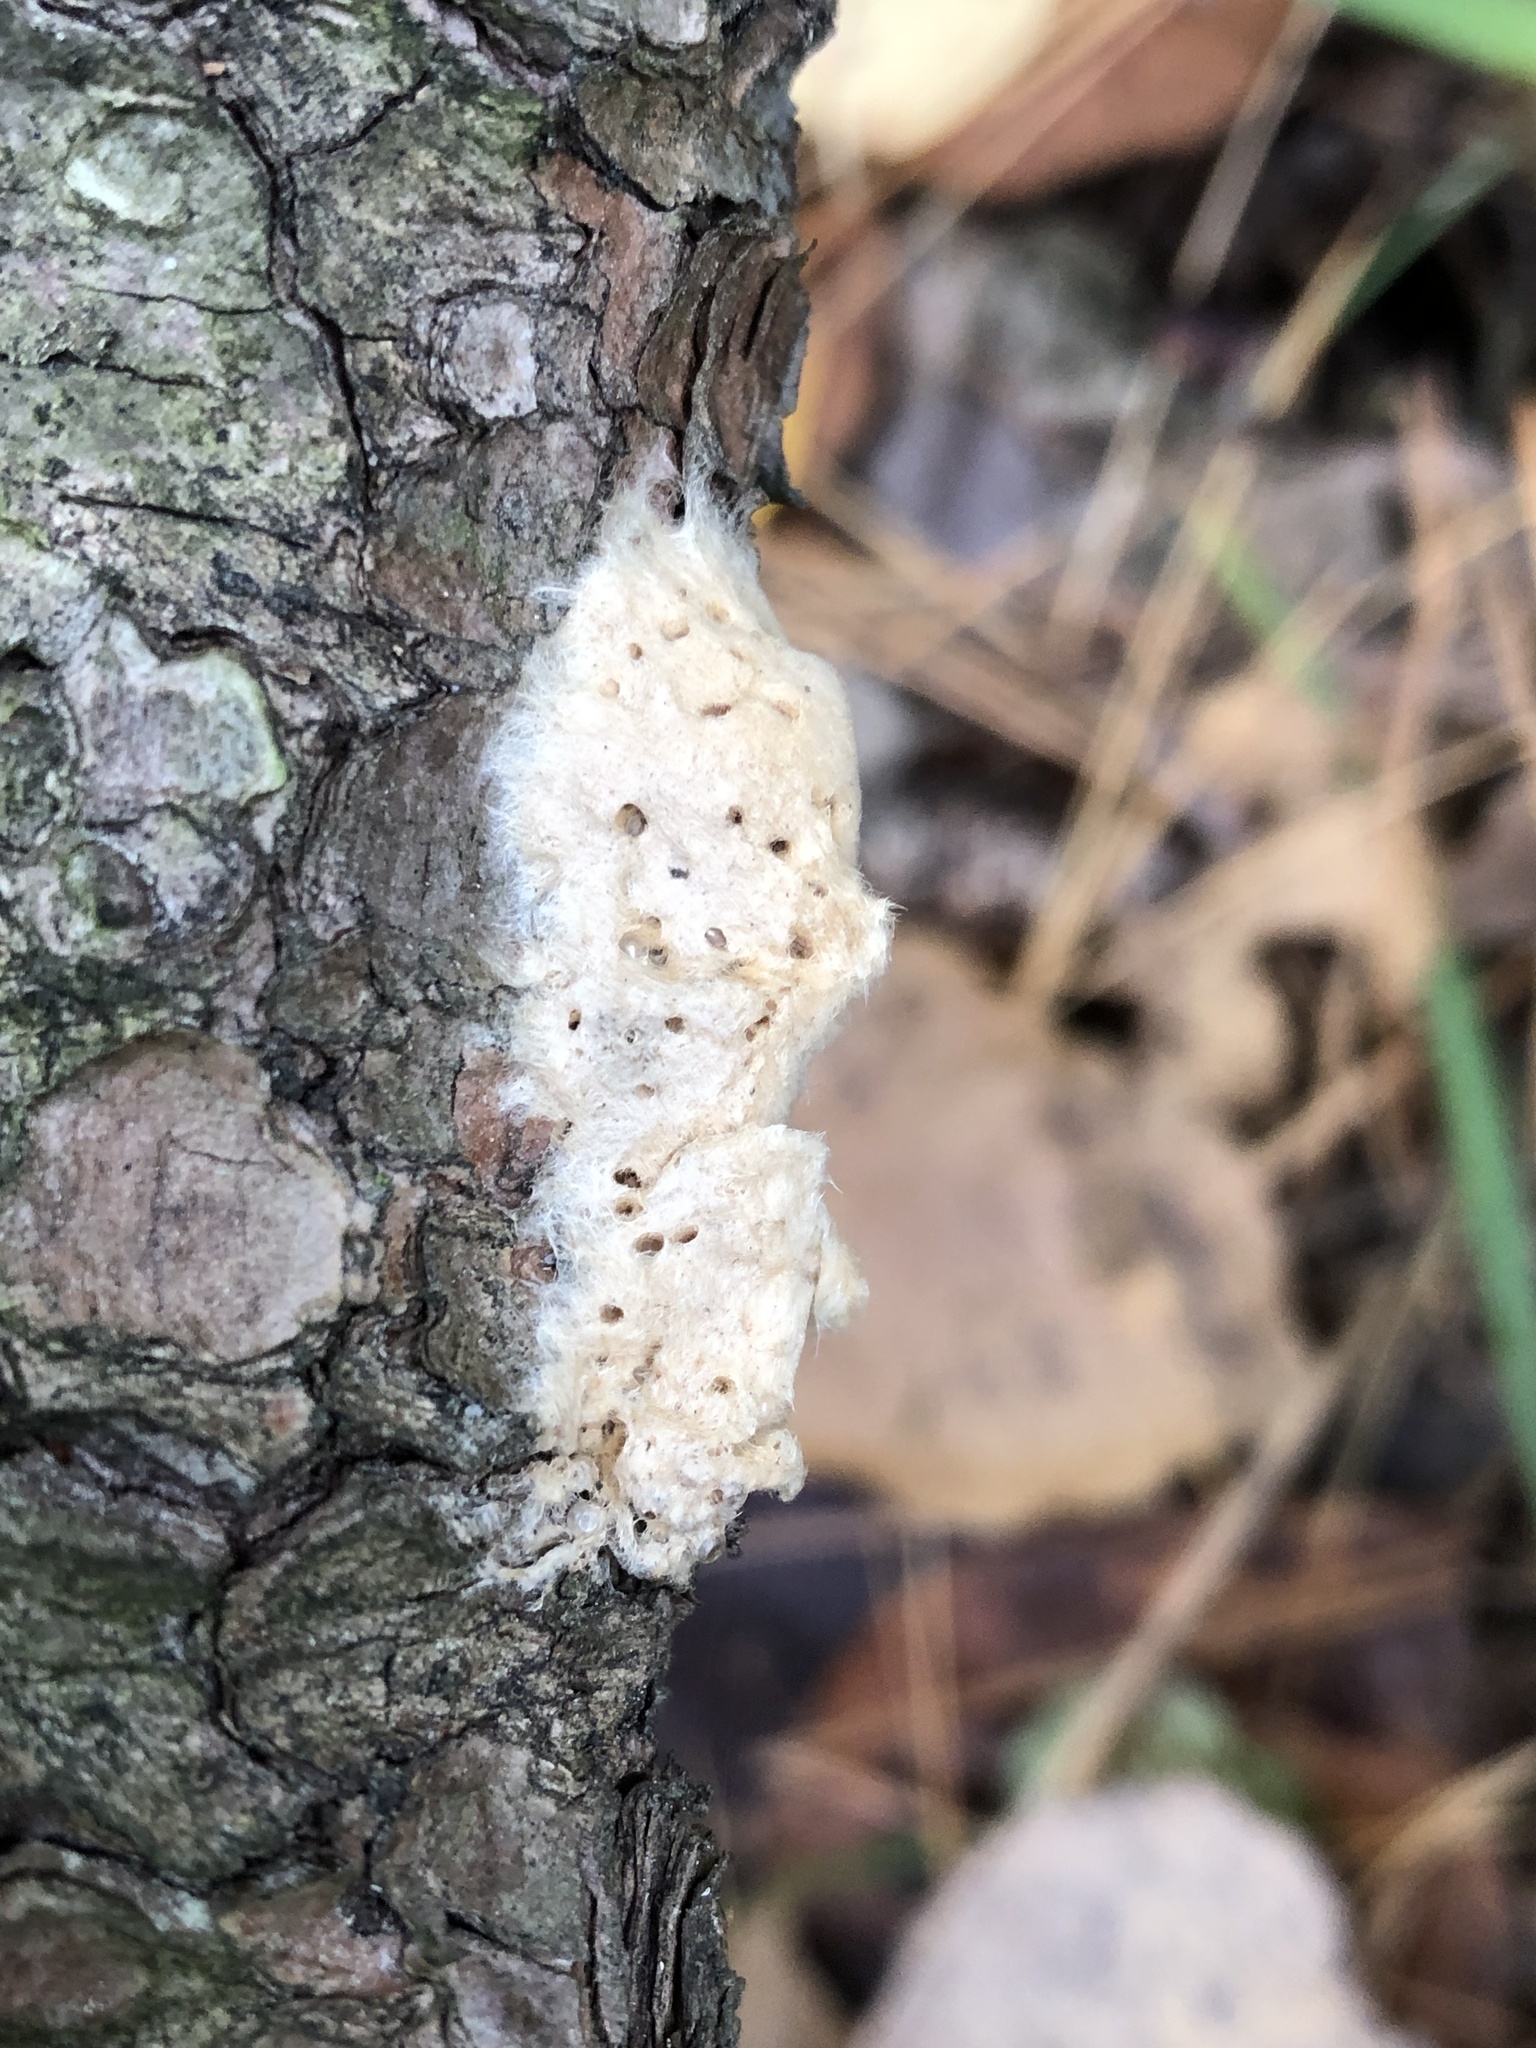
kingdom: Animalia
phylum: Arthropoda
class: Insecta
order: Lepidoptera
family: Erebidae
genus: Lymantria
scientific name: Lymantria dispar
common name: Gypsy moth
